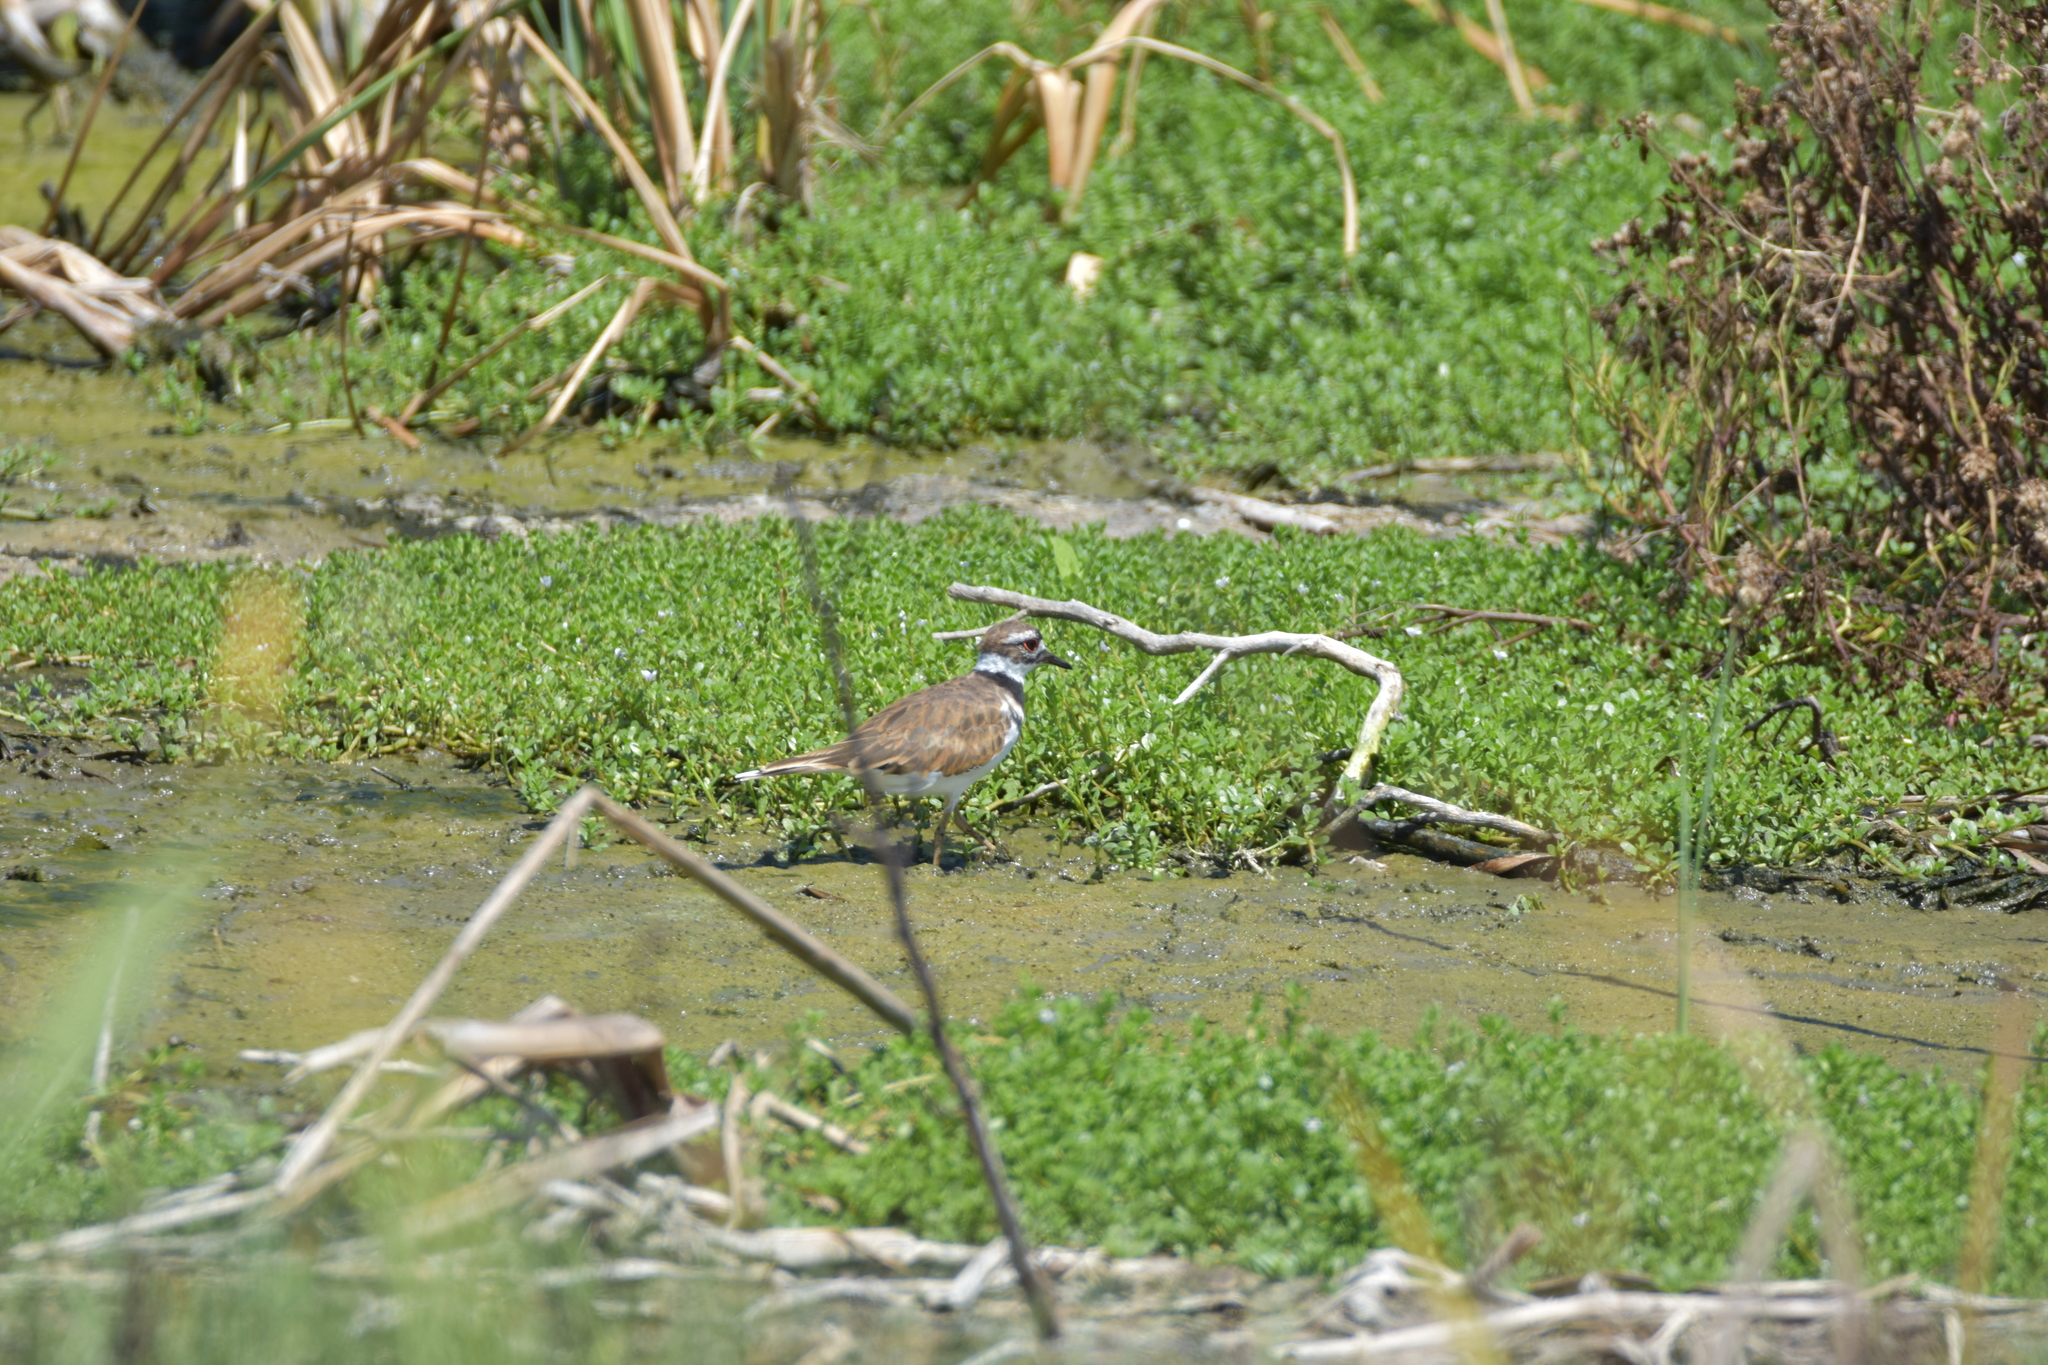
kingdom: Animalia
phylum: Chordata
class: Aves
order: Charadriiformes
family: Charadriidae
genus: Charadrius
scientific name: Charadrius vociferus
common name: Killdeer
